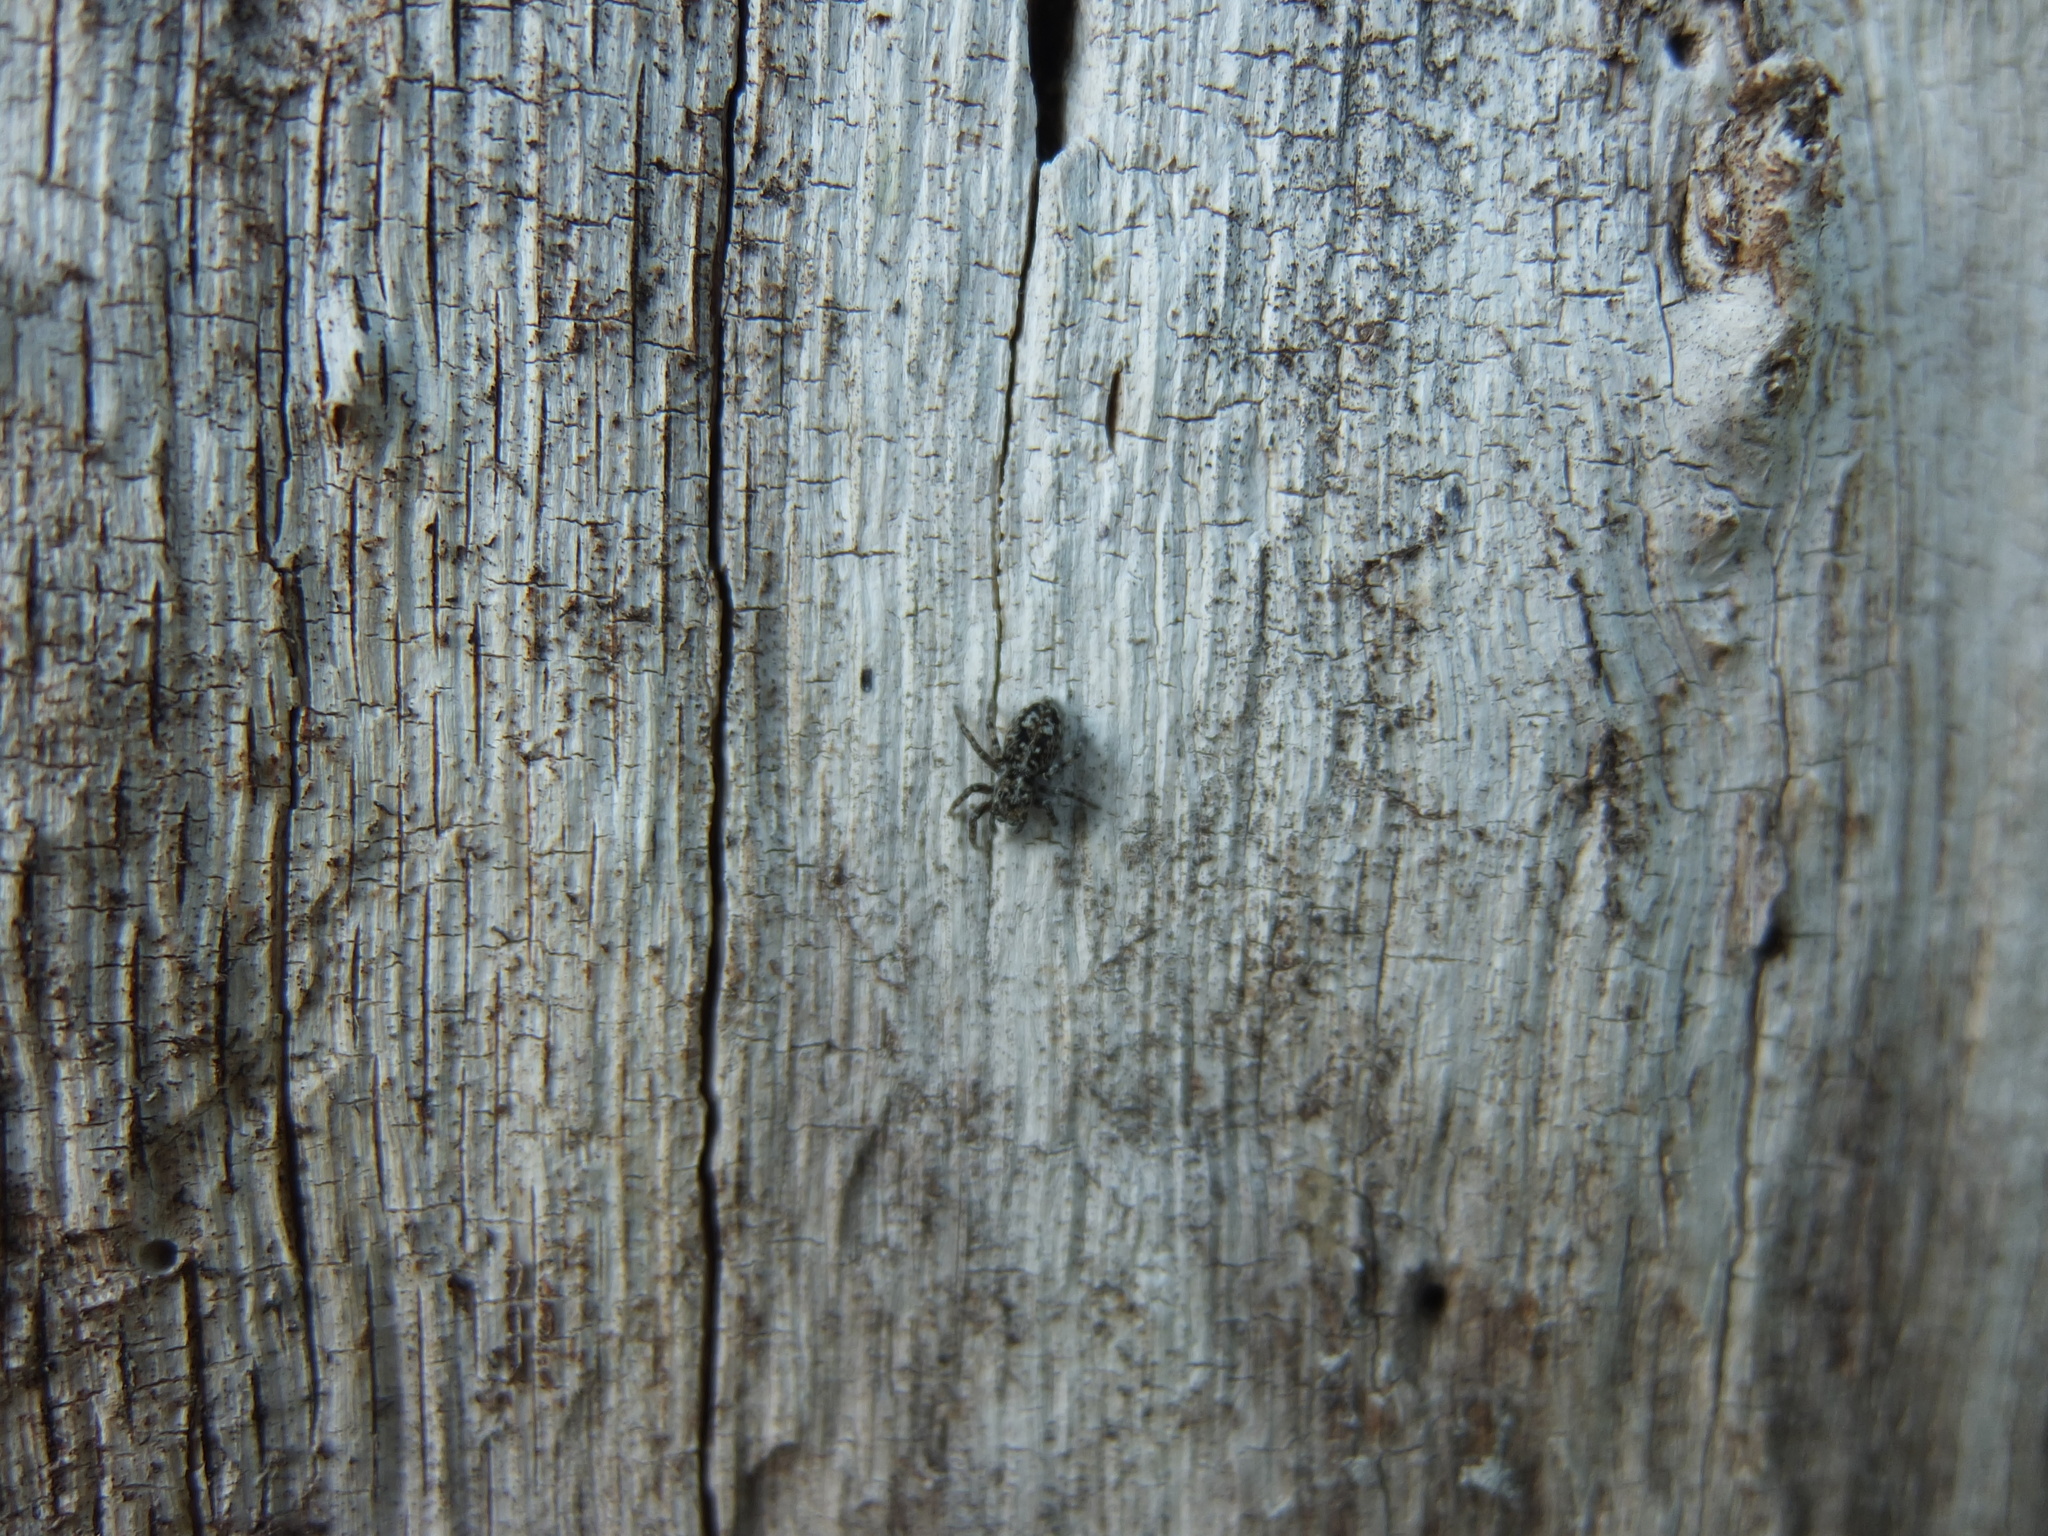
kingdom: Animalia
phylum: Arthropoda
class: Arachnida
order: Araneae
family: Salticidae
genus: Attulus
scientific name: Attulus terebratus
